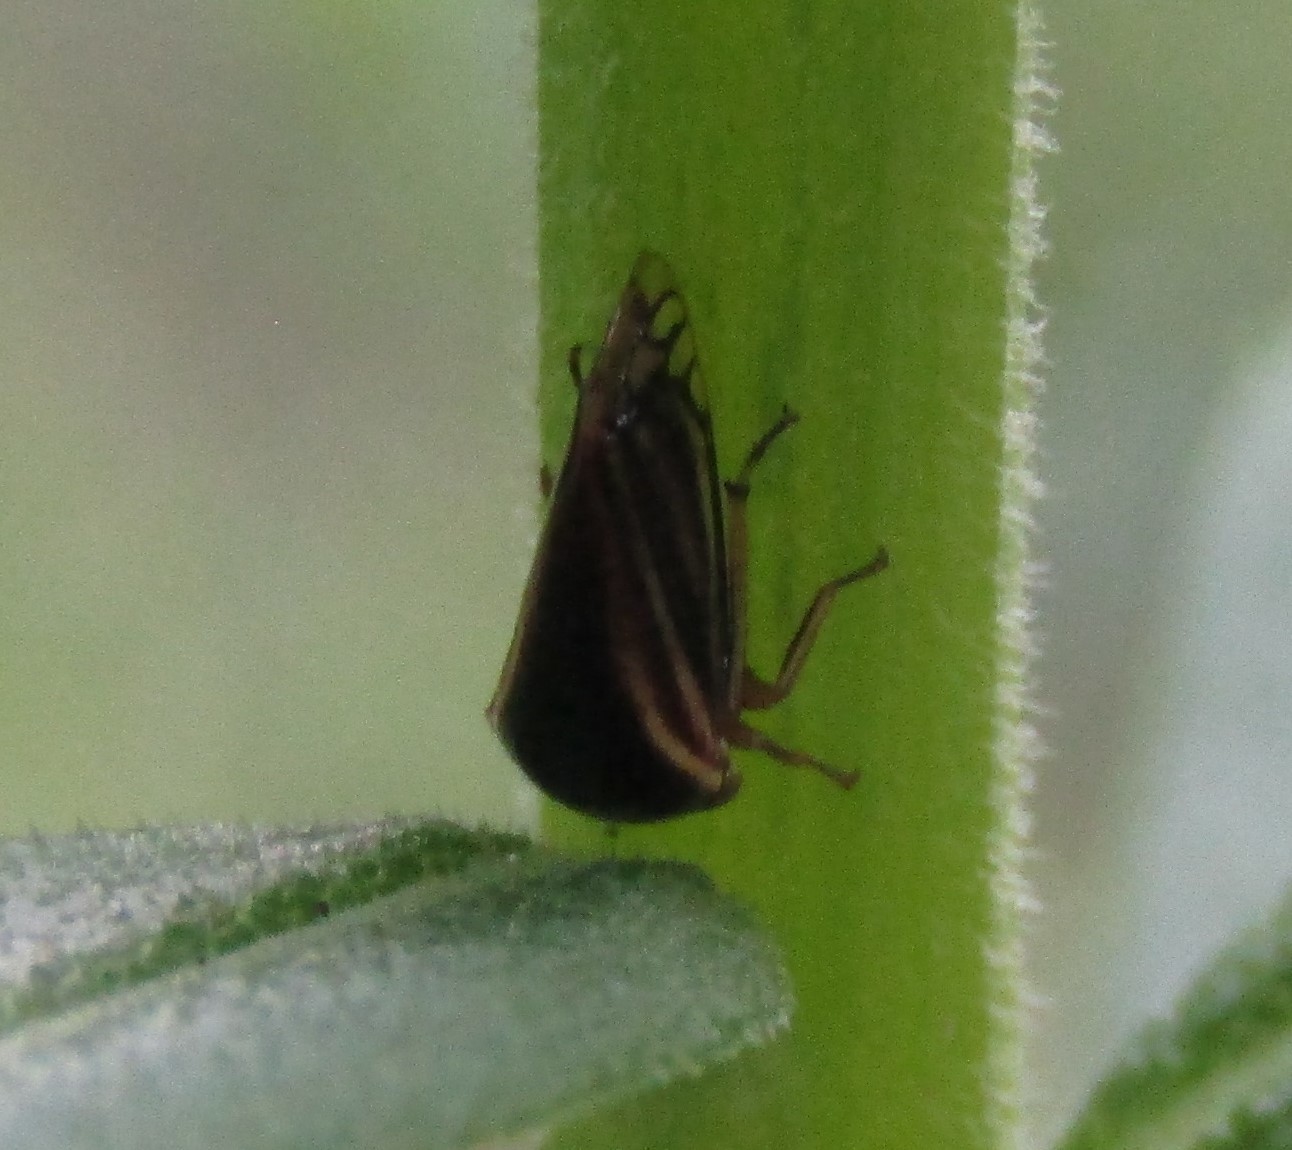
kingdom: Animalia
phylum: Arthropoda
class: Insecta
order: Hemiptera
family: Membracidae
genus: Acutalis
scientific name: Acutalis tartarea
